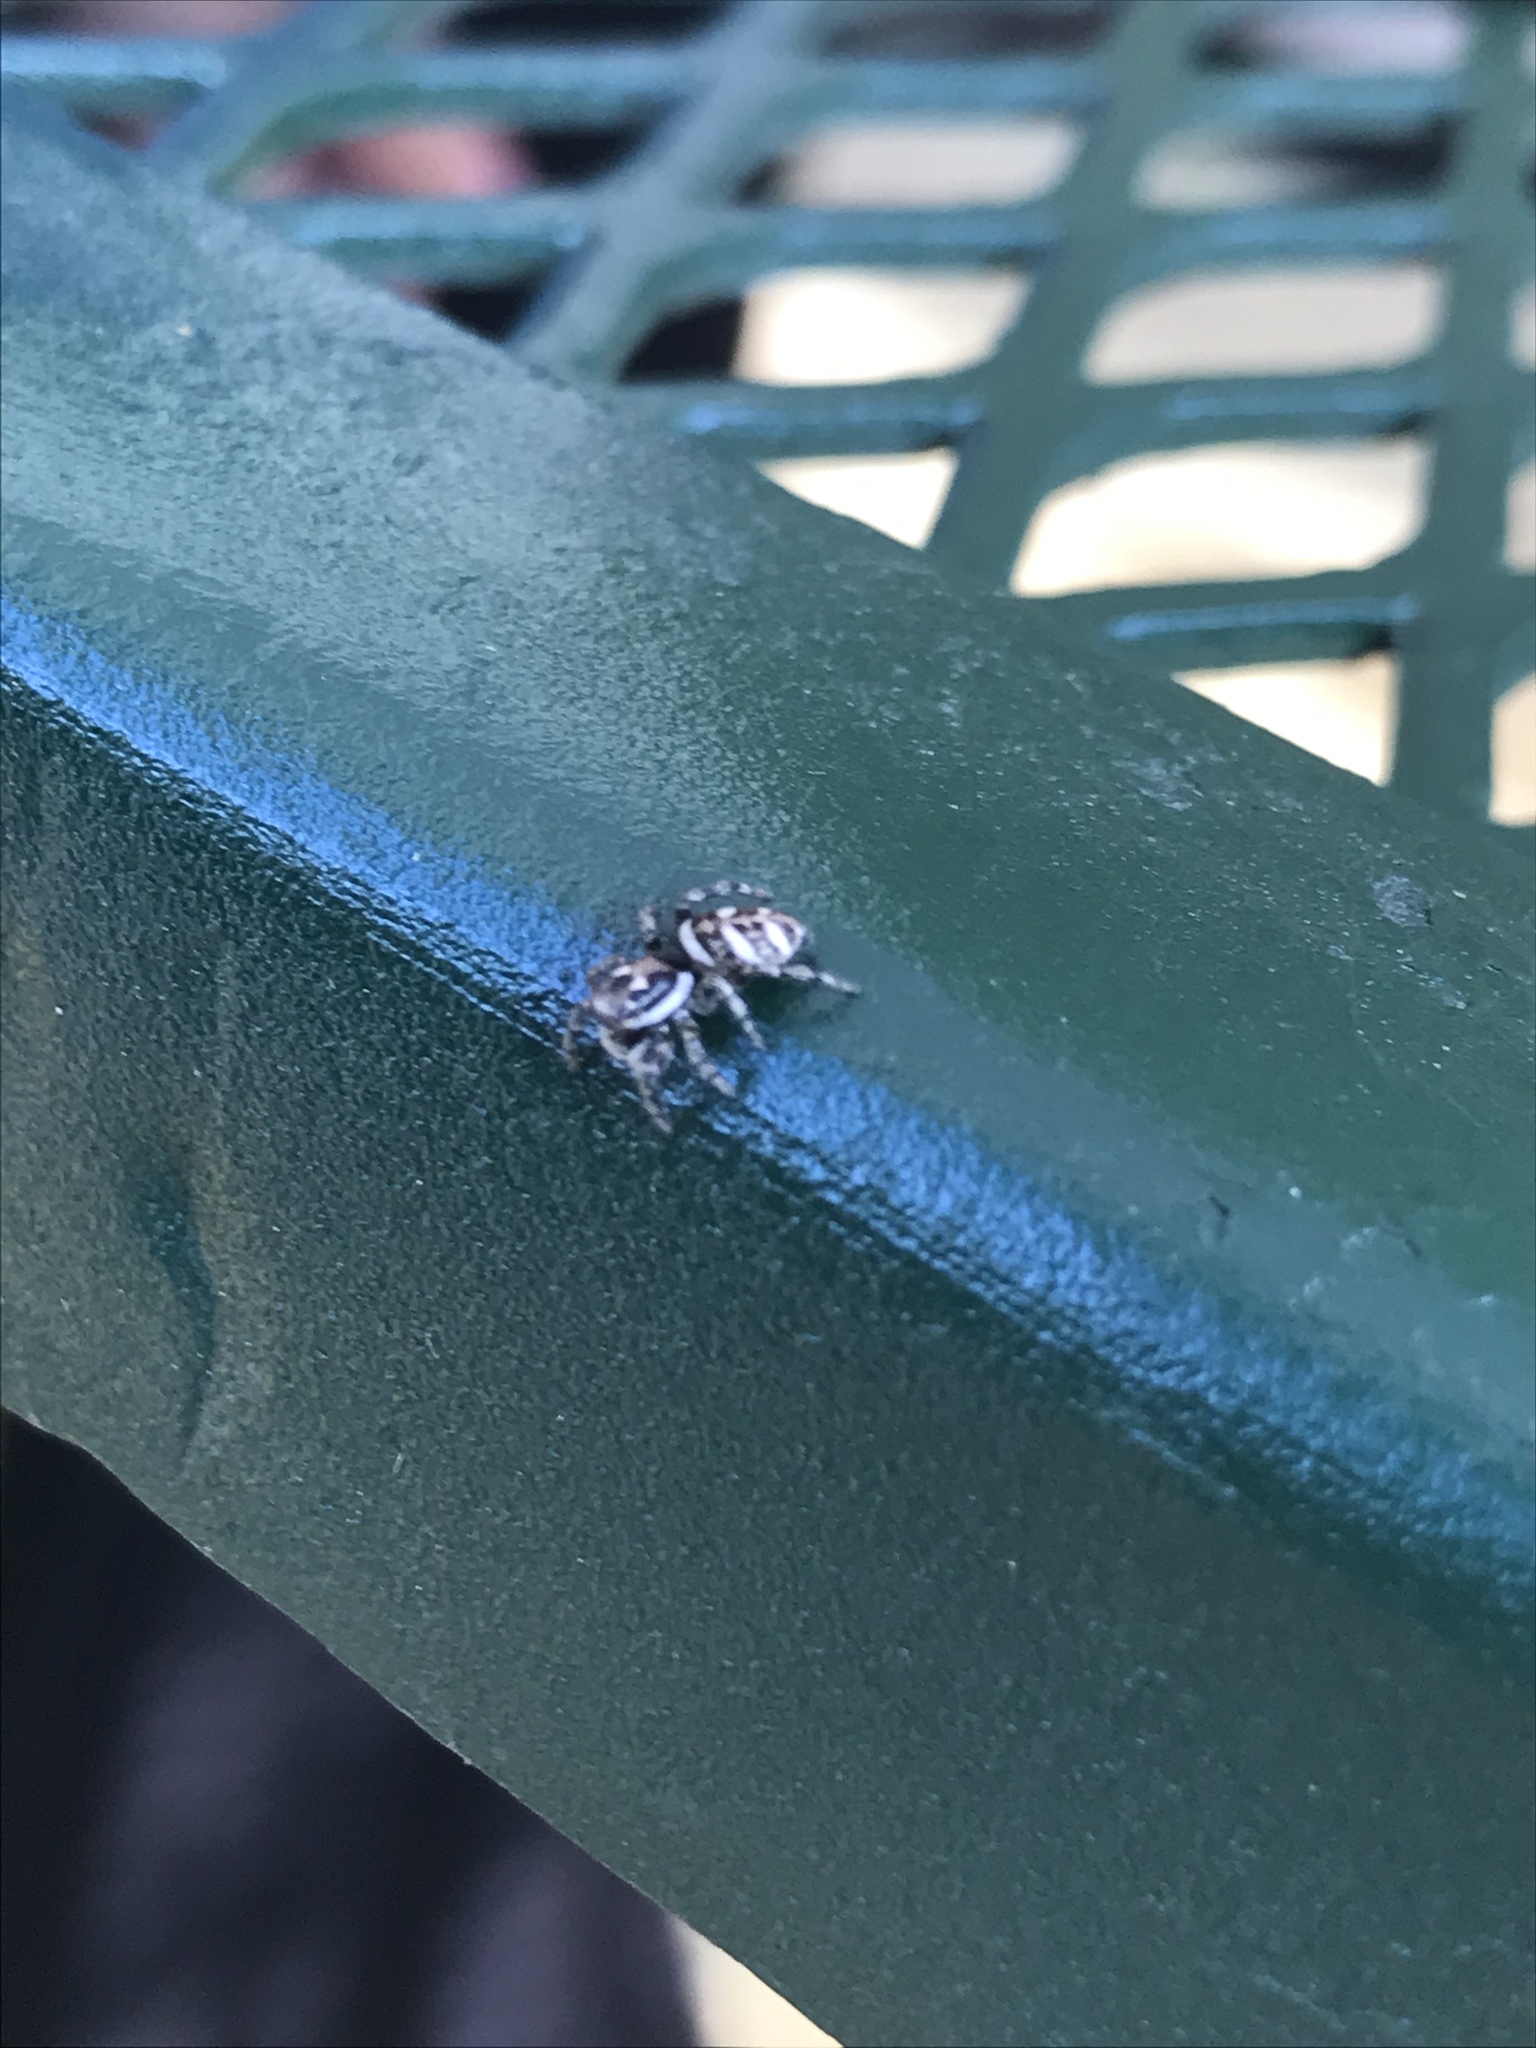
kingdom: Animalia
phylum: Arthropoda
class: Arachnida
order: Araneae
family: Salticidae
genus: Salticus
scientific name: Salticus scenicus
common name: Zebra jumper
